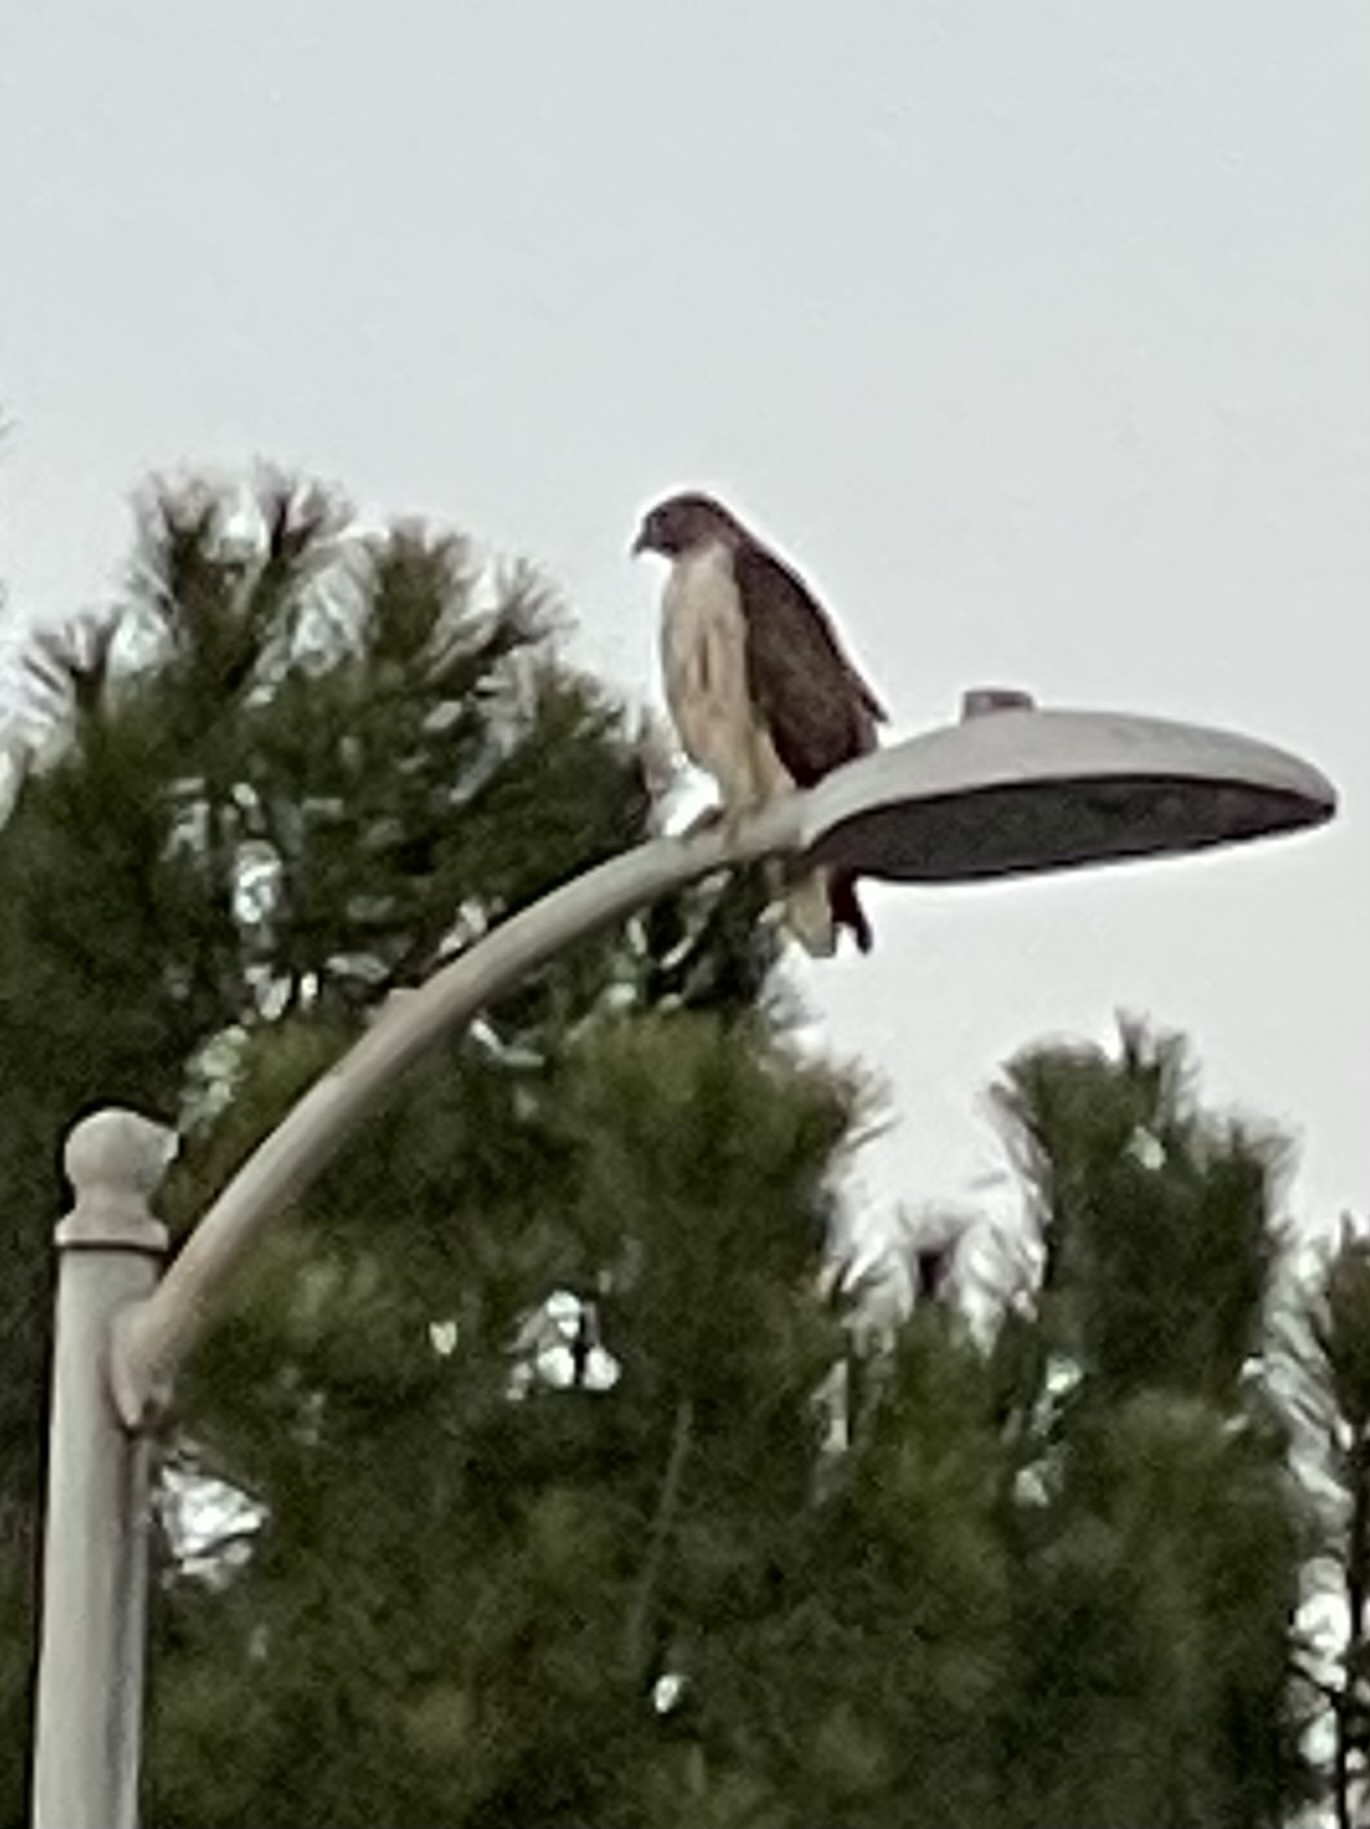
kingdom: Animalia
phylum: Chordata
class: Aves
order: Accipitriformes
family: Accipitridae
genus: Buteo
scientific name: Buteo jamaicensis
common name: Red-tailed hawk
